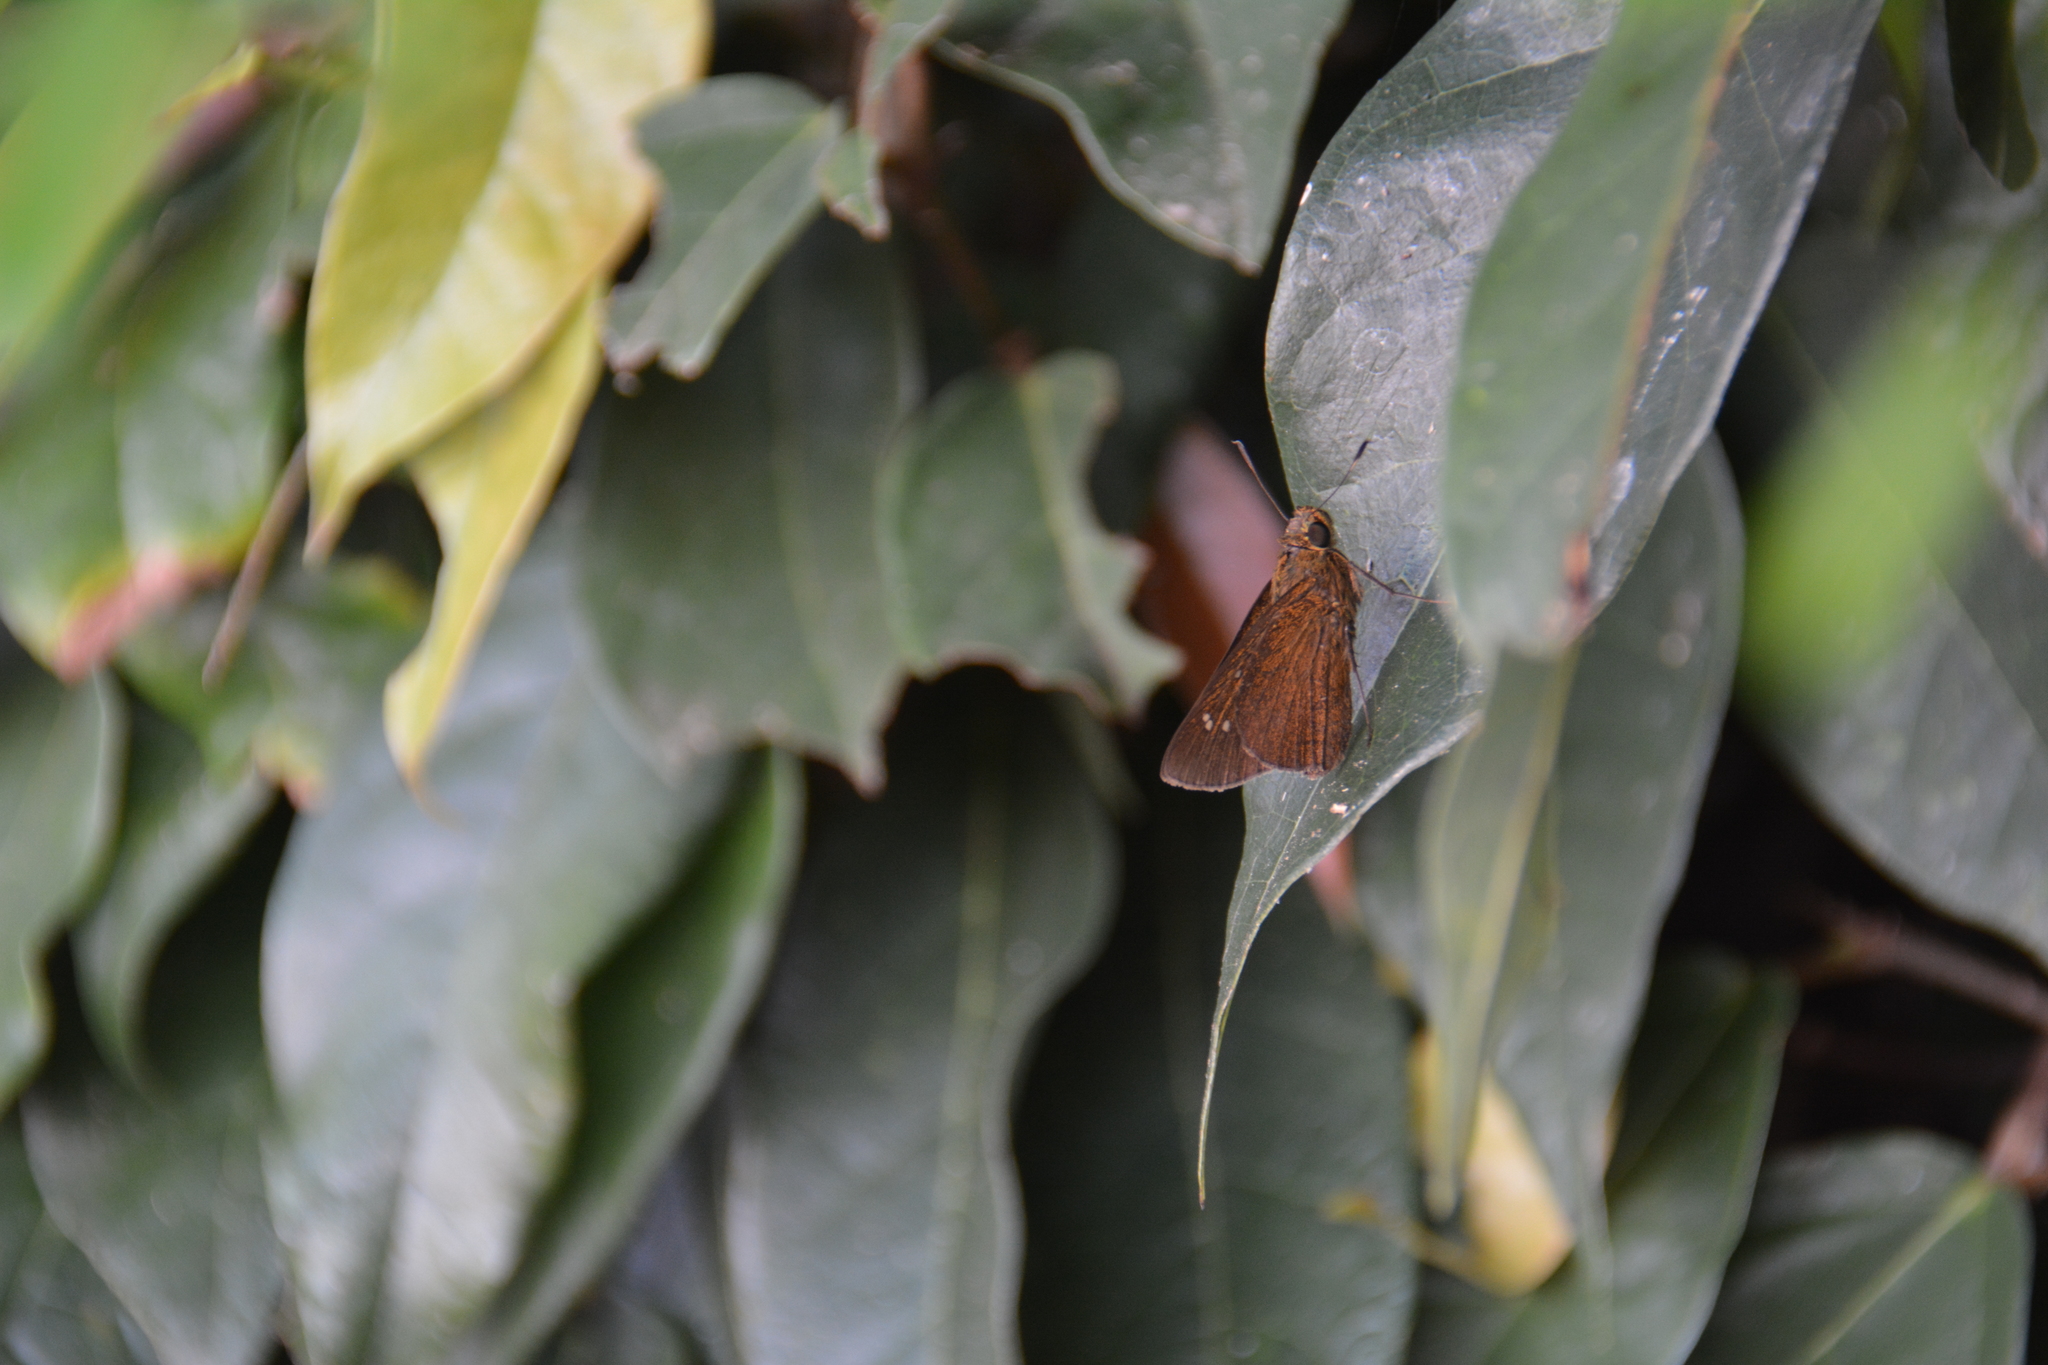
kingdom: Animalia
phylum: Arthropoda
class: Insecta
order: Lepidoptera
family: Hesperiidae
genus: Caltoris
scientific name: Caltoris cahira
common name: Colon swift
